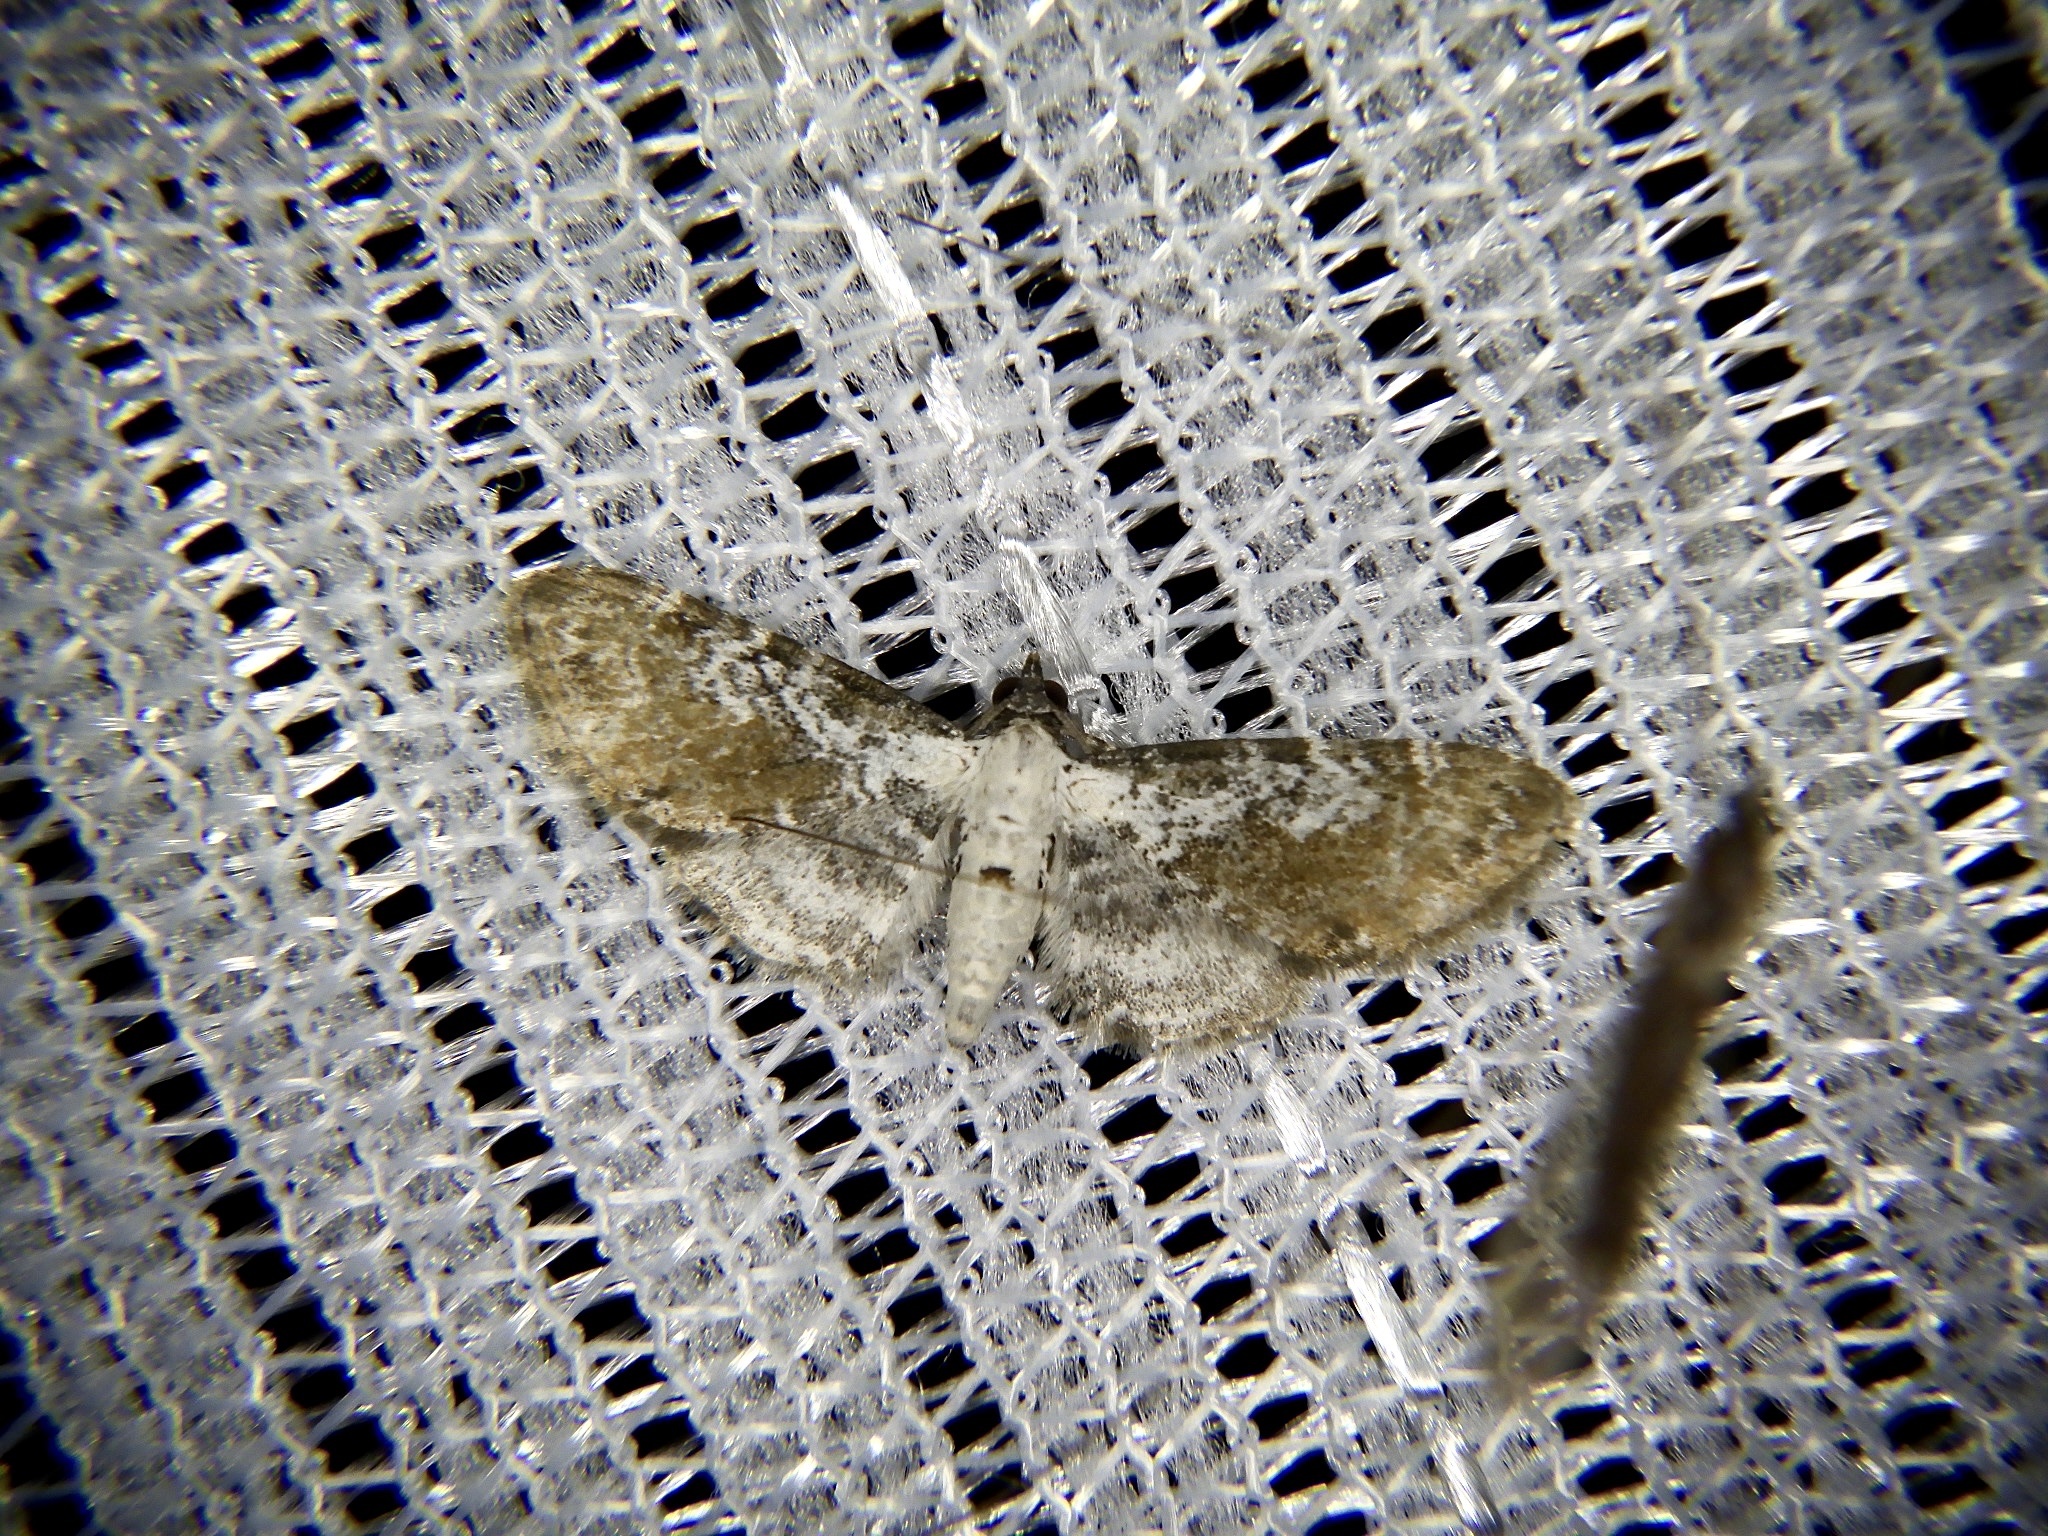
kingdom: Animalia
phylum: Arthropoda
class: Insecta
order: Lepidoptera
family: Geometridae
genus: Eupithecia
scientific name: Eupithecia sophia
